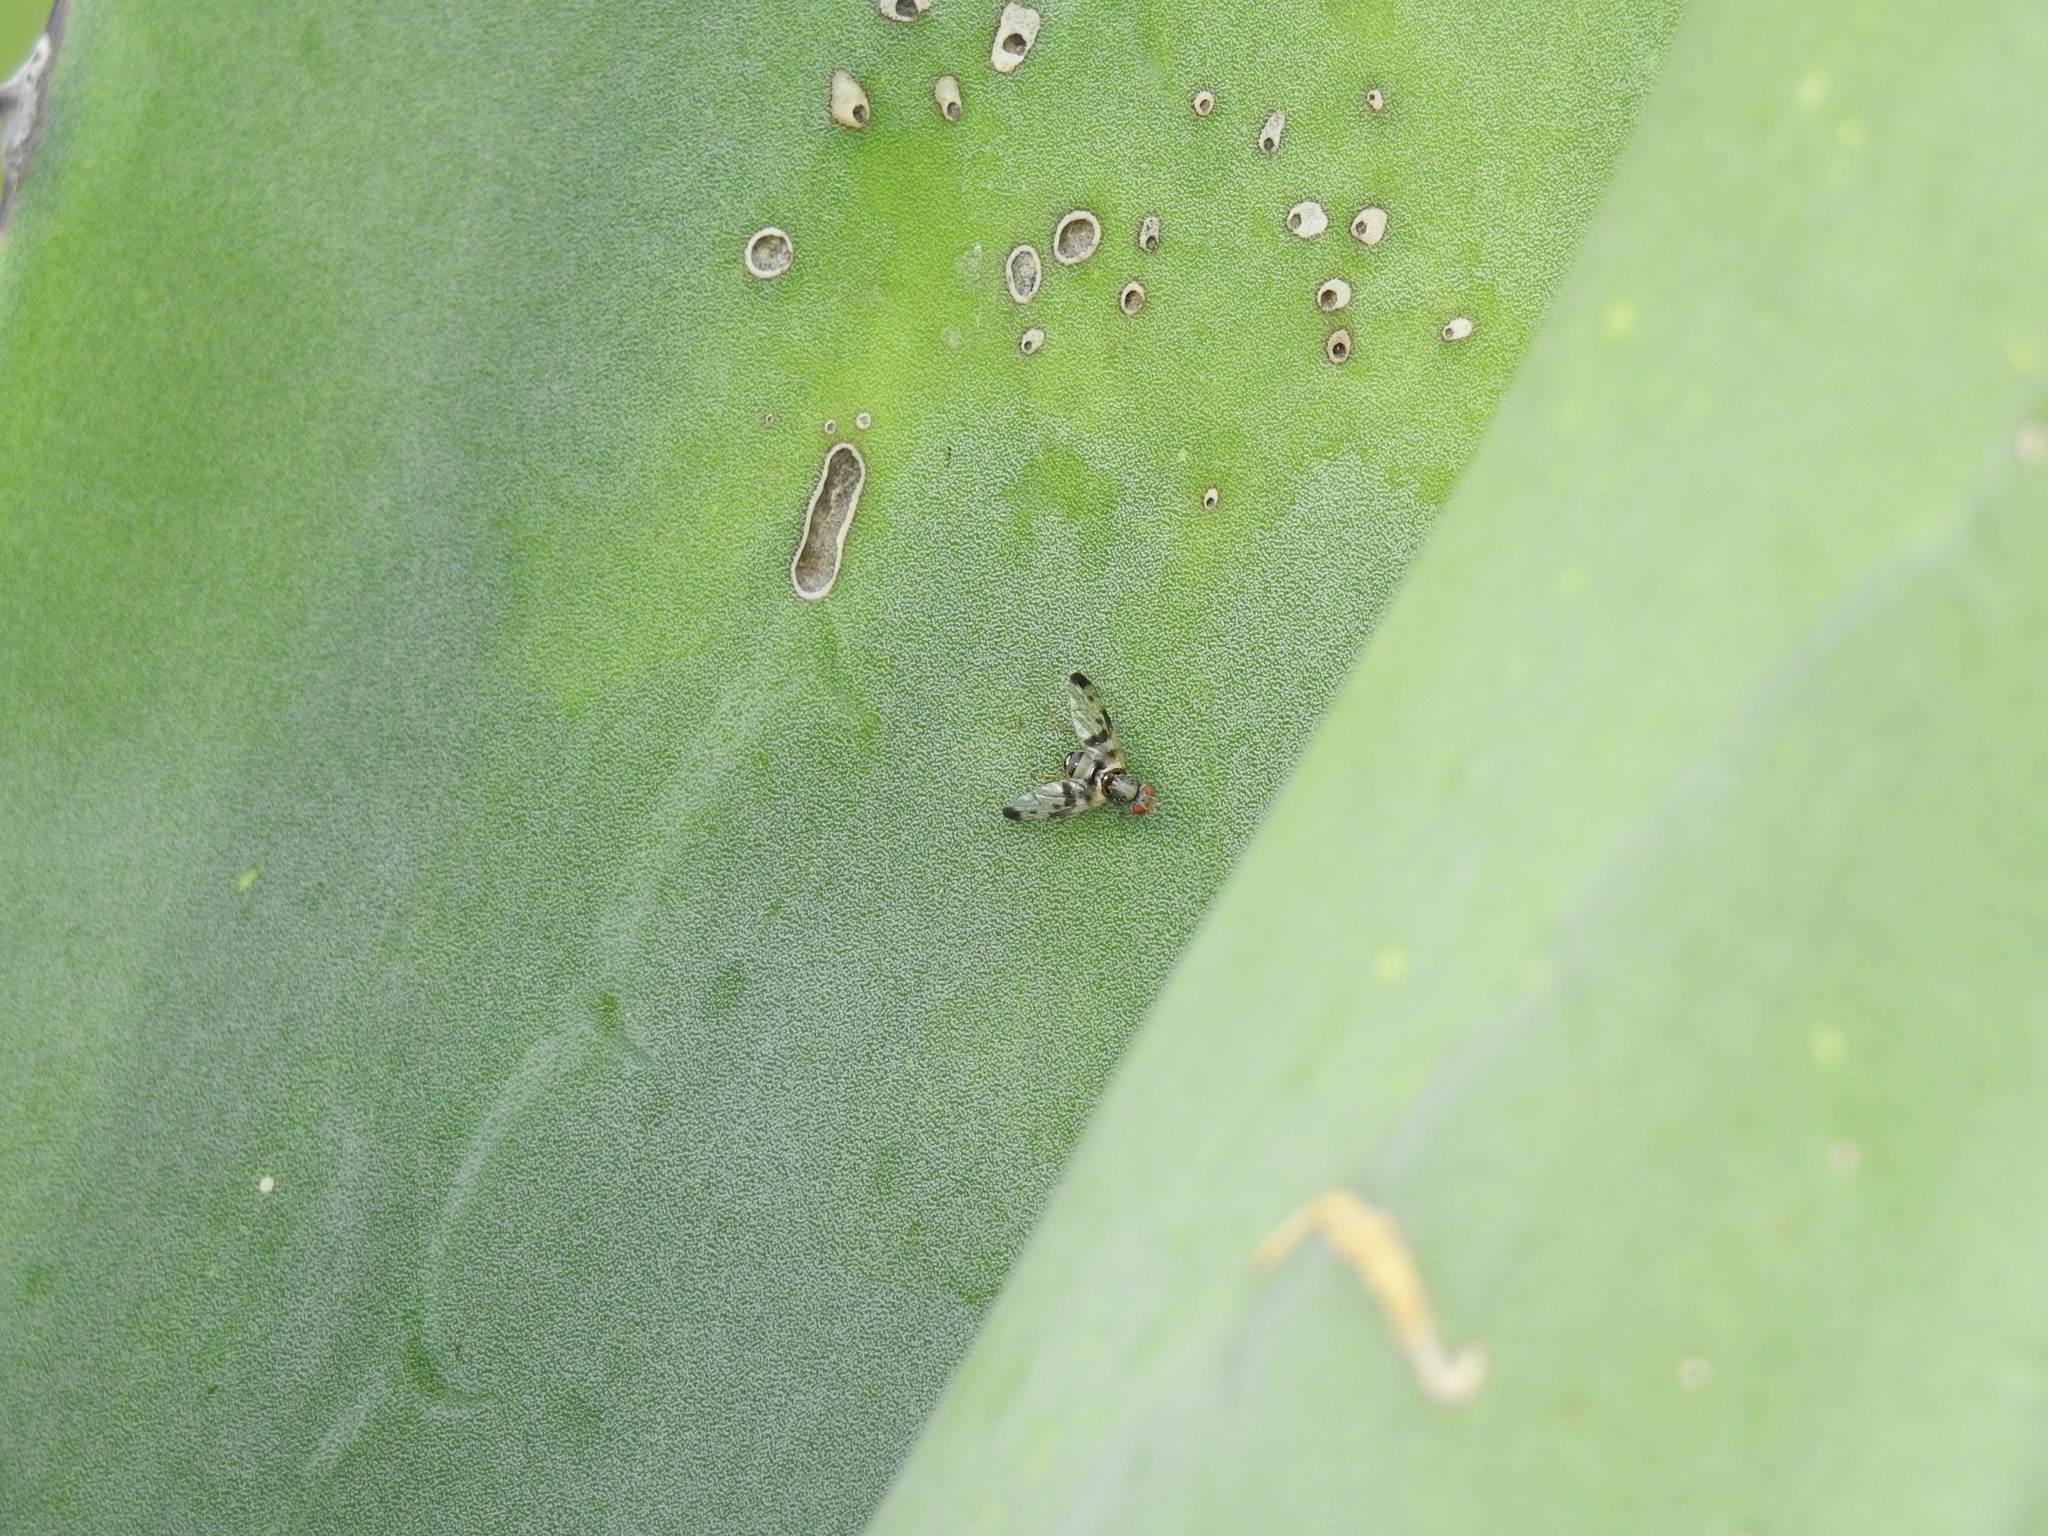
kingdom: Animalia
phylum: Arthropoda
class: Insecta
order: Diptera
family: Ulidiidae
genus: Pseudodyscrasis
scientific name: Pseudodyscrasis scutellaris
